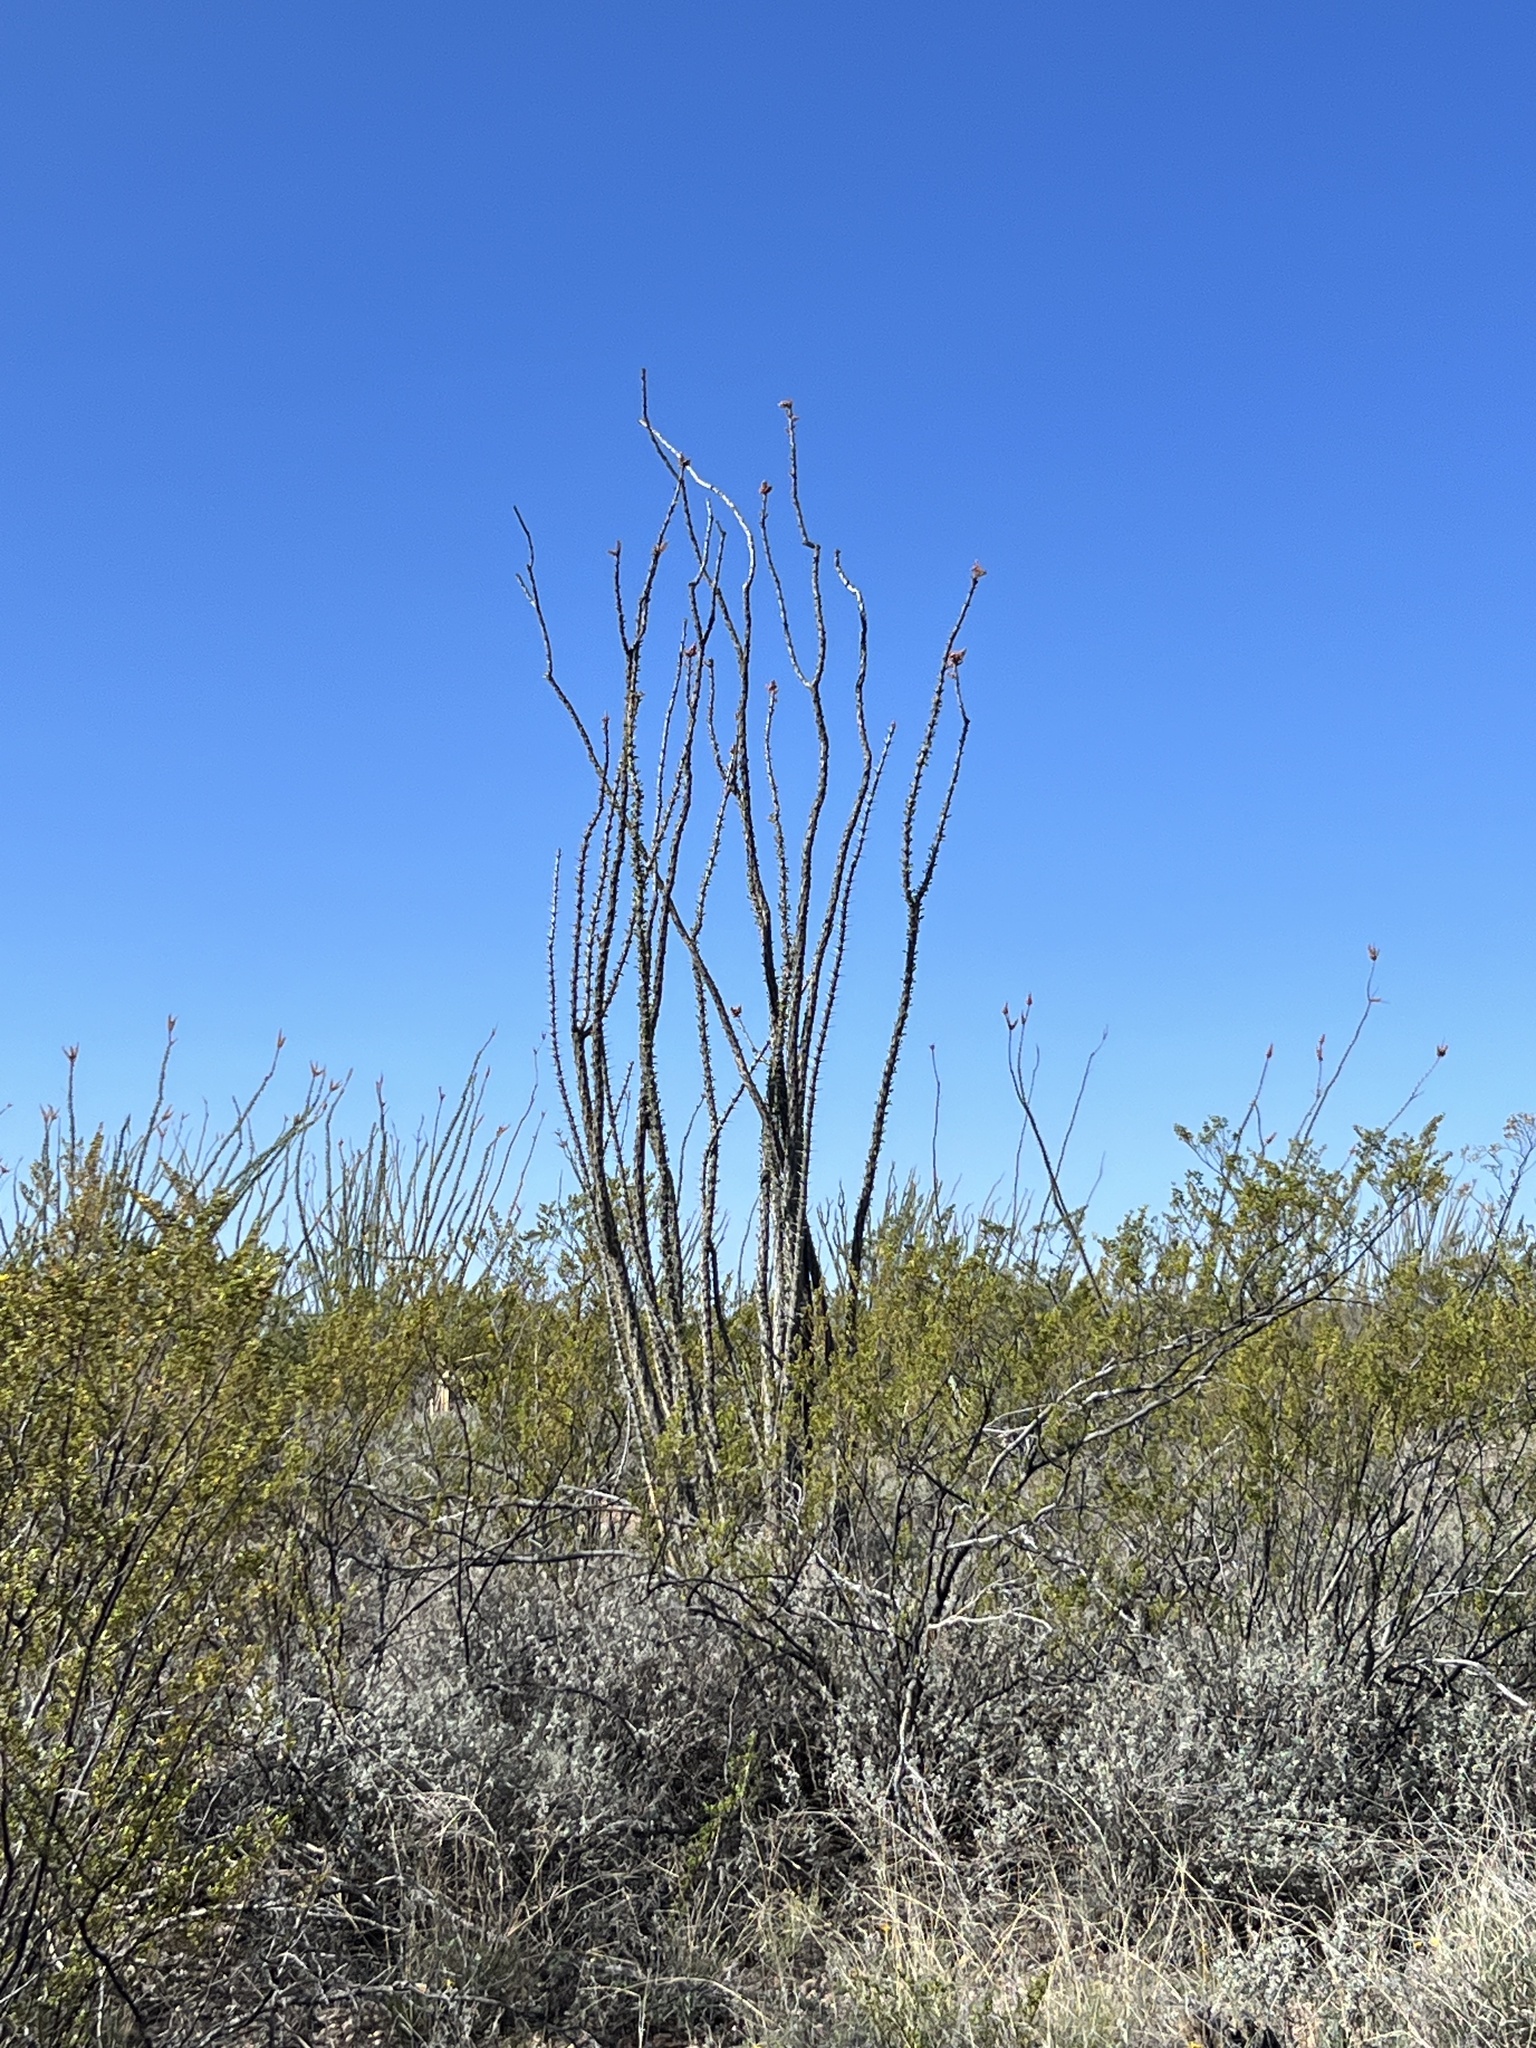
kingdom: Plantae
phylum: Tracheophyta
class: Magnoliopsida
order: Ericales
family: Fouquieriaceae
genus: Fouquieria
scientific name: Fouquieria splendens
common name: Vine-cactus
